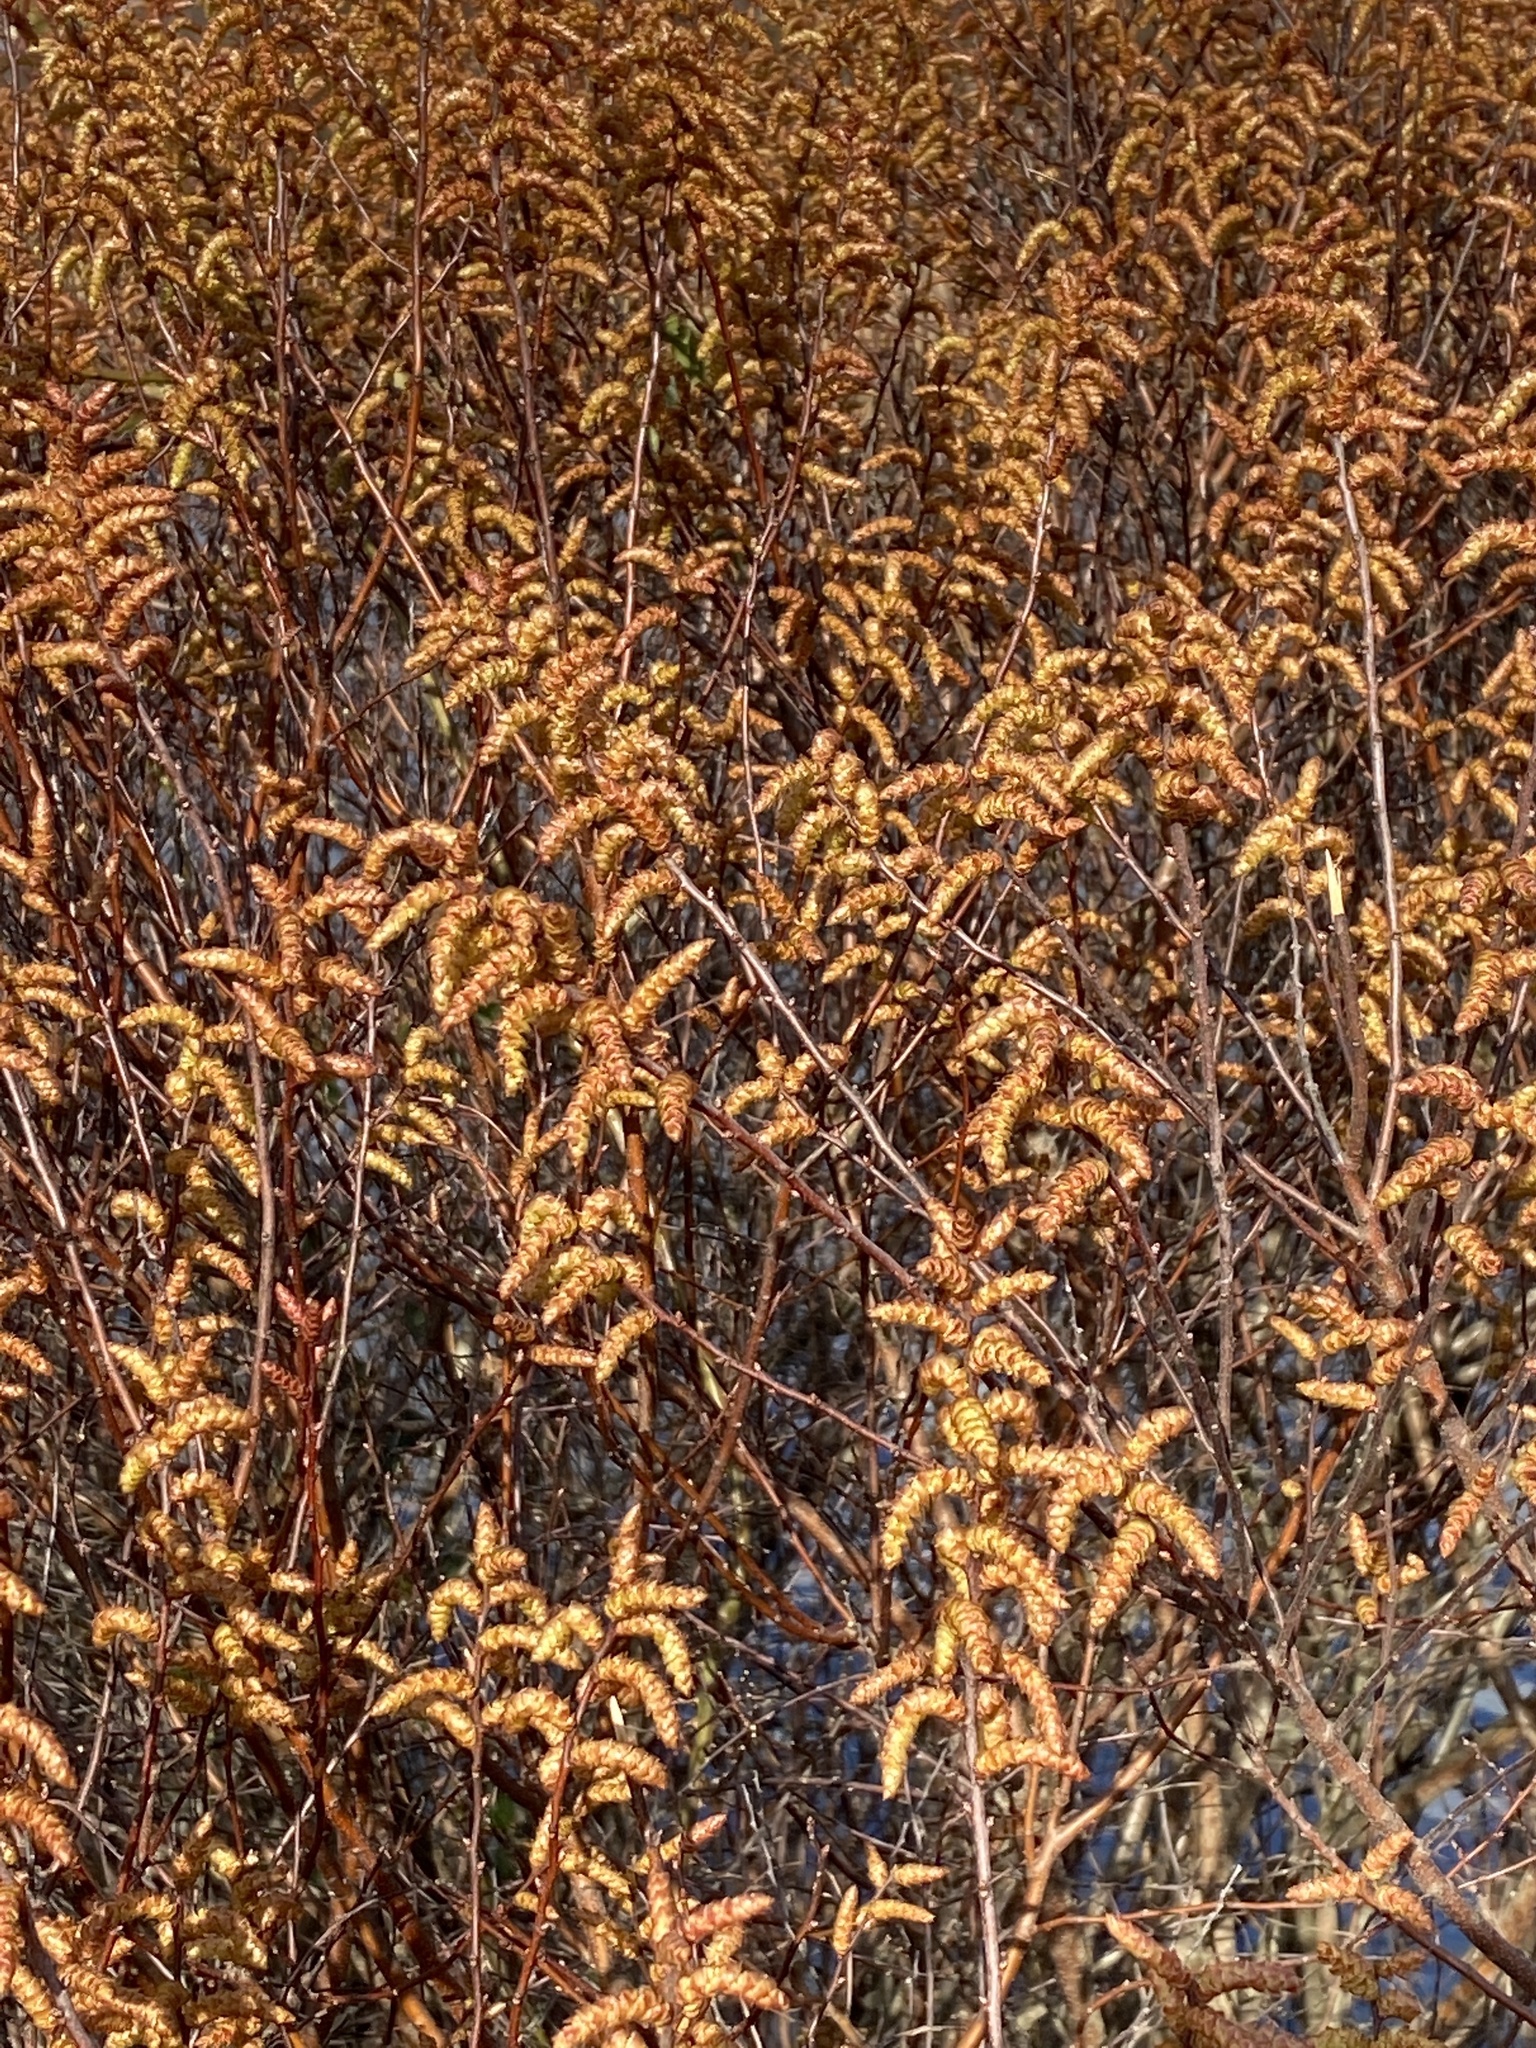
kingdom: Plantae
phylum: Tracheophyta
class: Magnoliopsida
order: Fagales
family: Myricaceae
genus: Myrica
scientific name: Myrica gale
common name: Sweet gale
